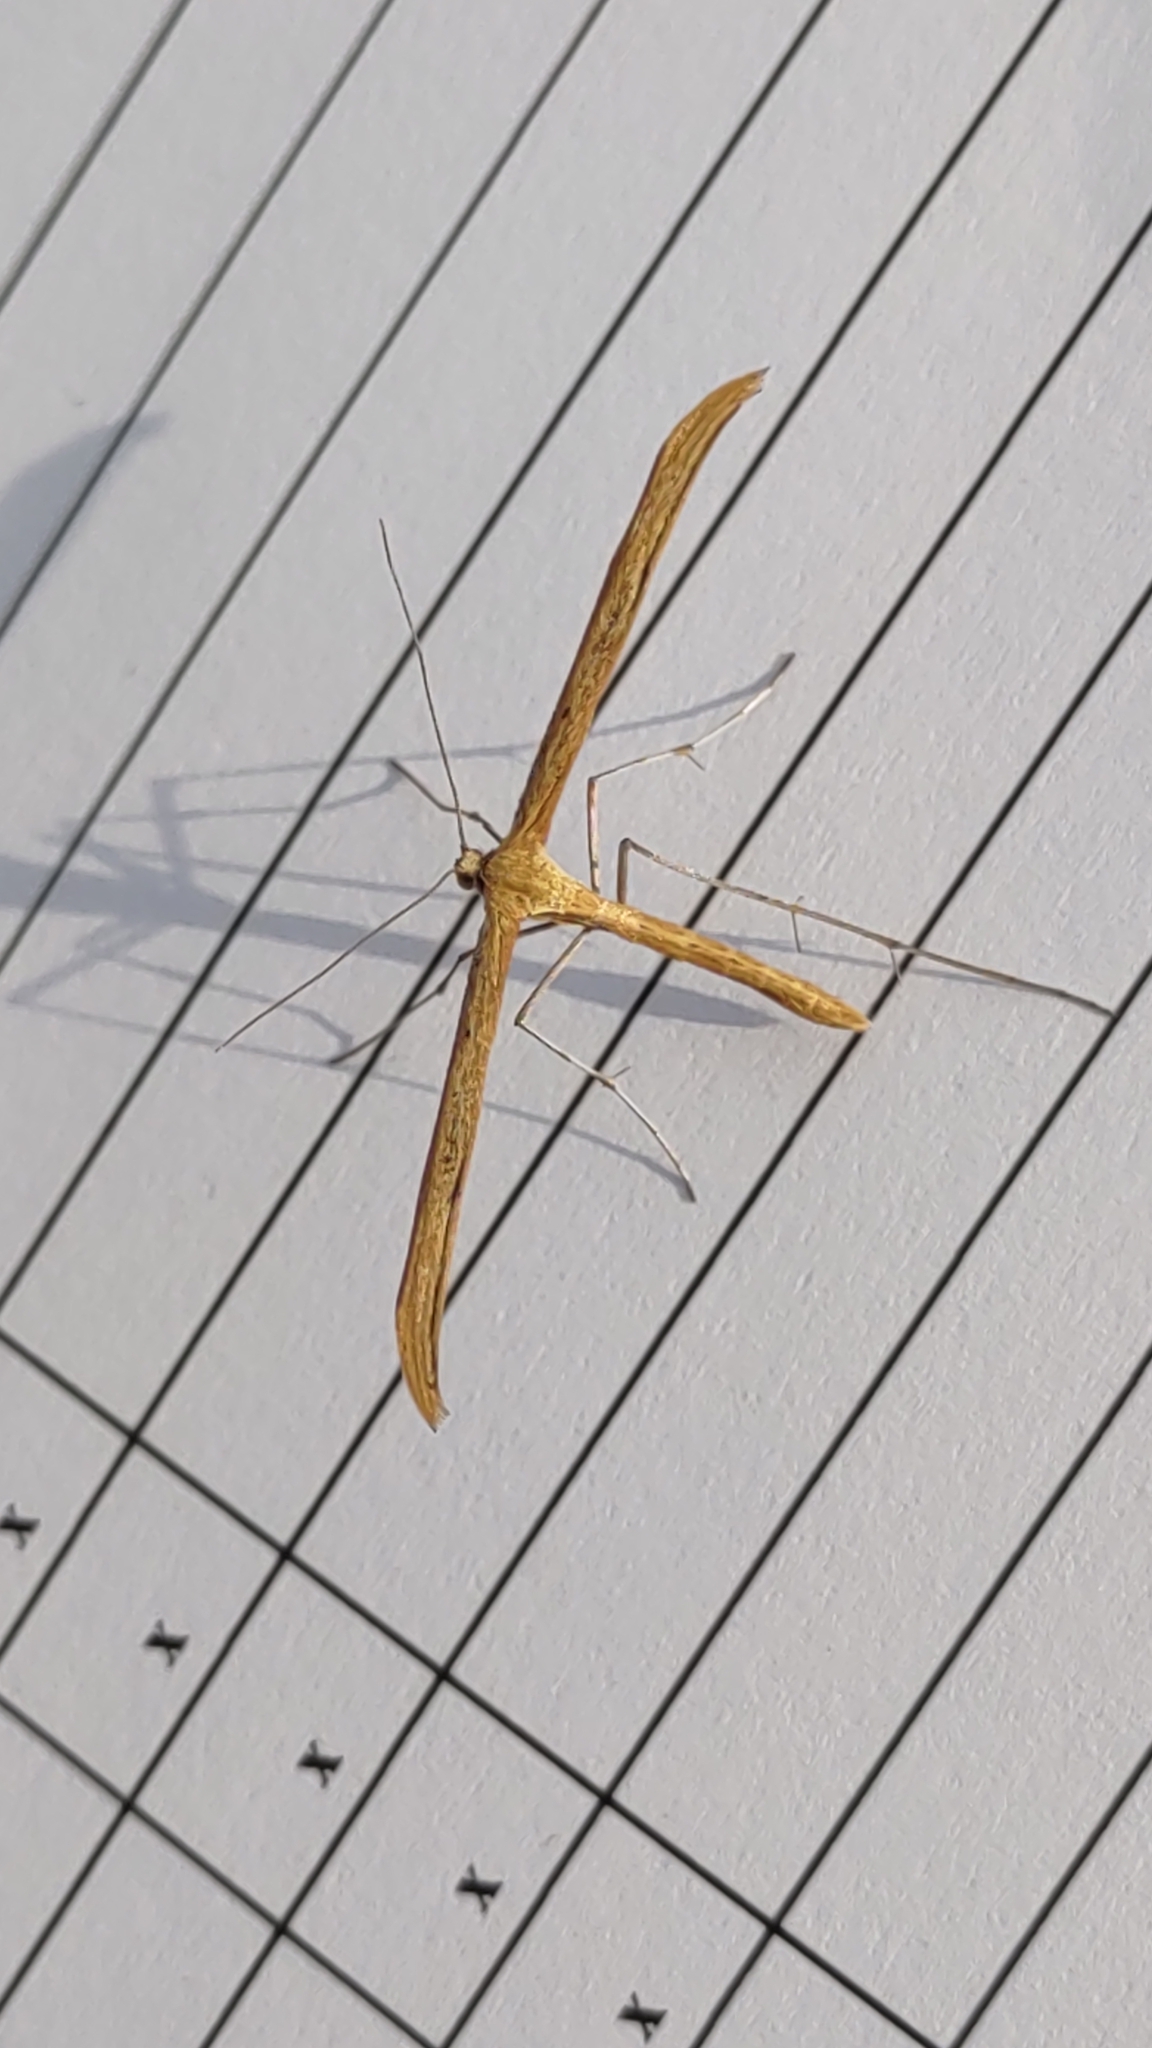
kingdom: Animalia
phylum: Arthropoda
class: Insecta
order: Lepidoptera
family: Pterophoridae
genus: Emmelina
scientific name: Emmelina monodactyla
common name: Common plume
